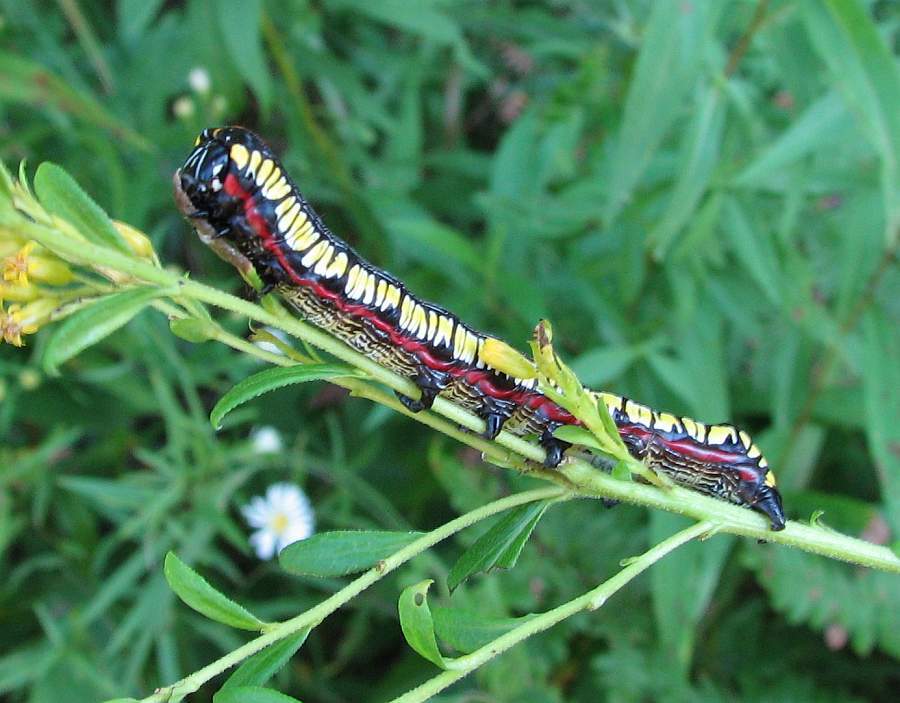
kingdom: Animalia
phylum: Arthropoda
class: Insecta
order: Lepidoptera
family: Noctuidae
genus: Cucullia
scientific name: Cucullia convexipennis
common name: Brown-hooded owlet
